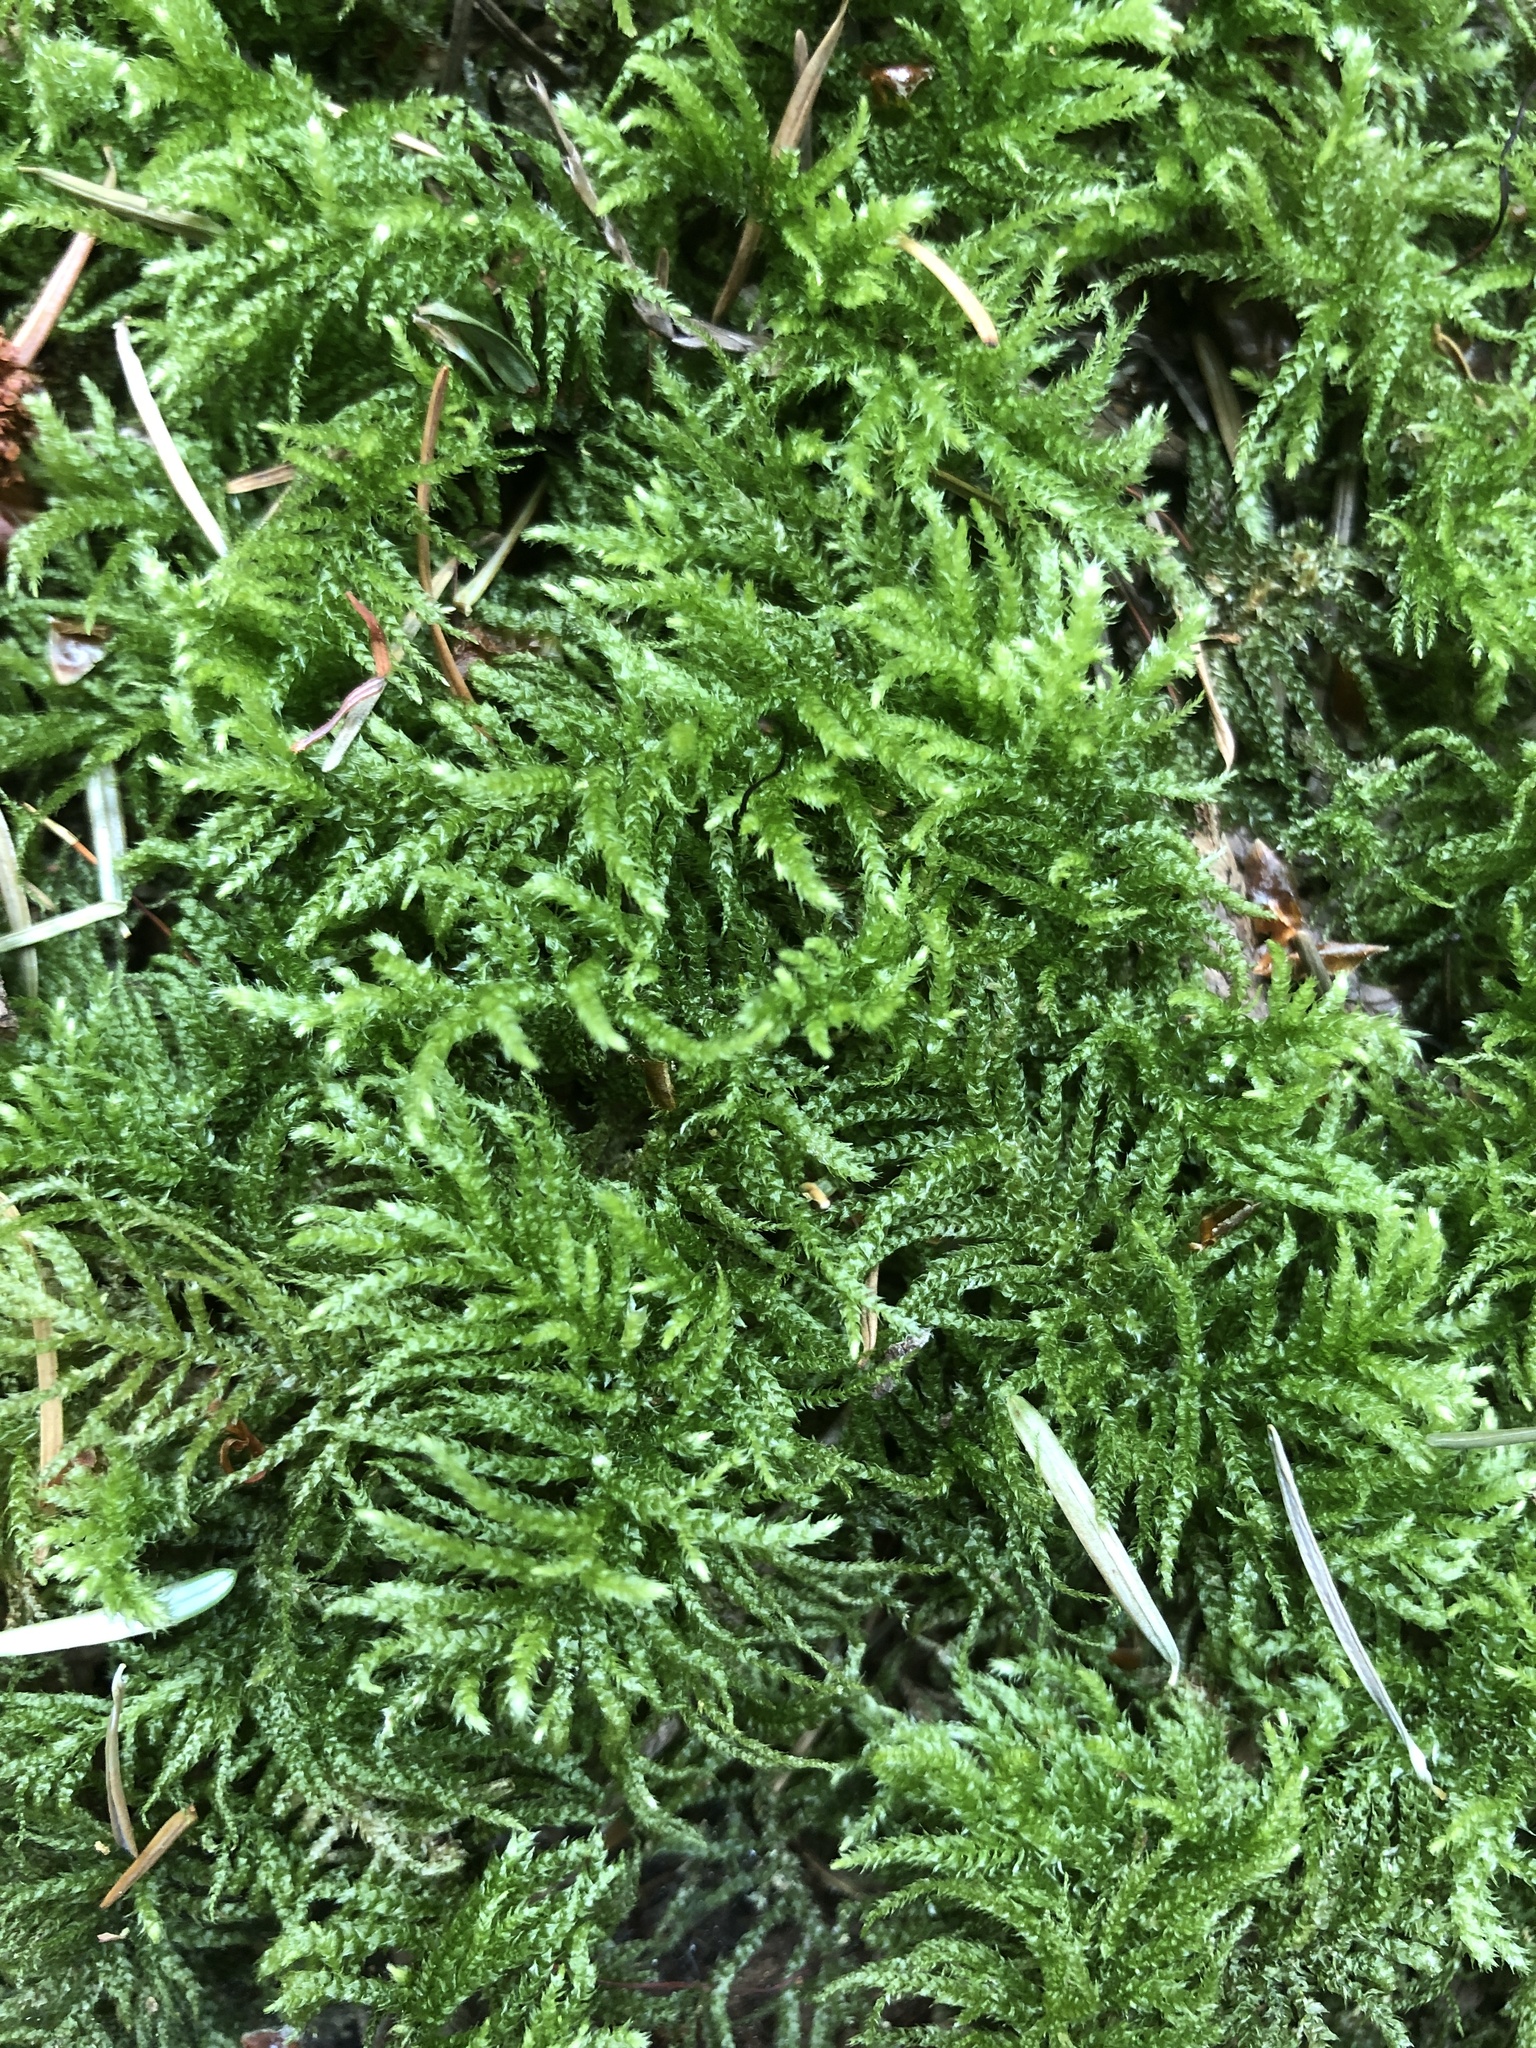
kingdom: Plantae
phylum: Bryophyta
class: Bryopsida
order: Hypnales
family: Brachytheciaceae
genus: Kindbergia
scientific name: Kindbergia oregana
